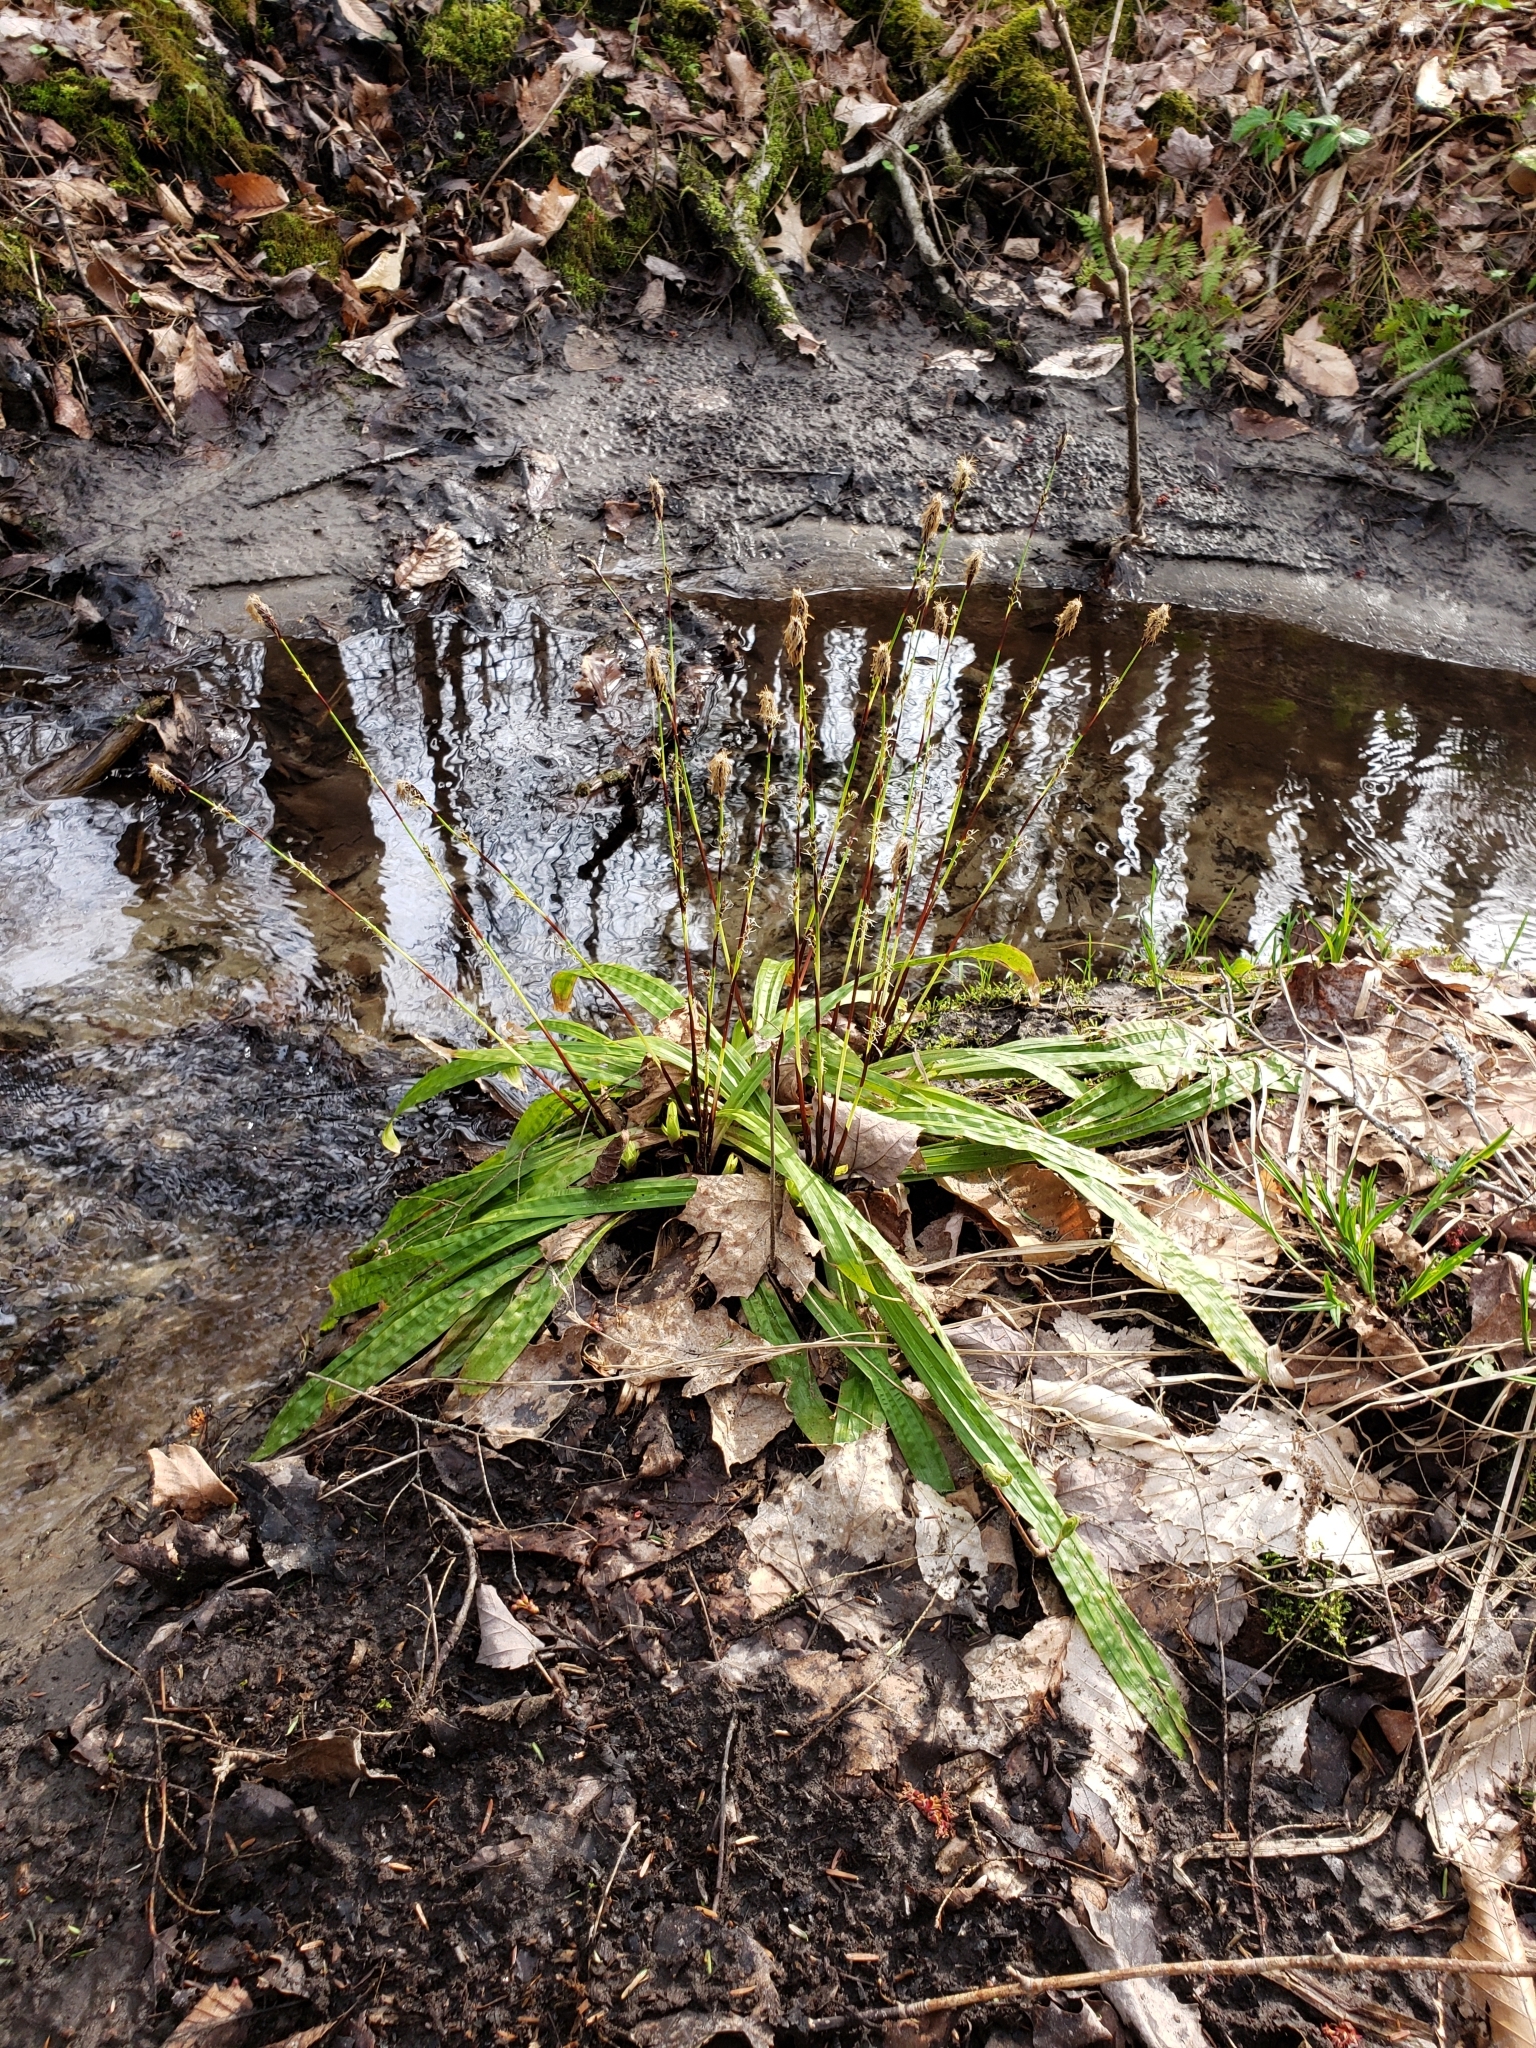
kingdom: Plantae
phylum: Tracheophyta
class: Liliopsida
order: Poales
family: Cyperaceae
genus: Carex
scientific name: Carex plantaginea
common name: Plantain-leaved sedge
